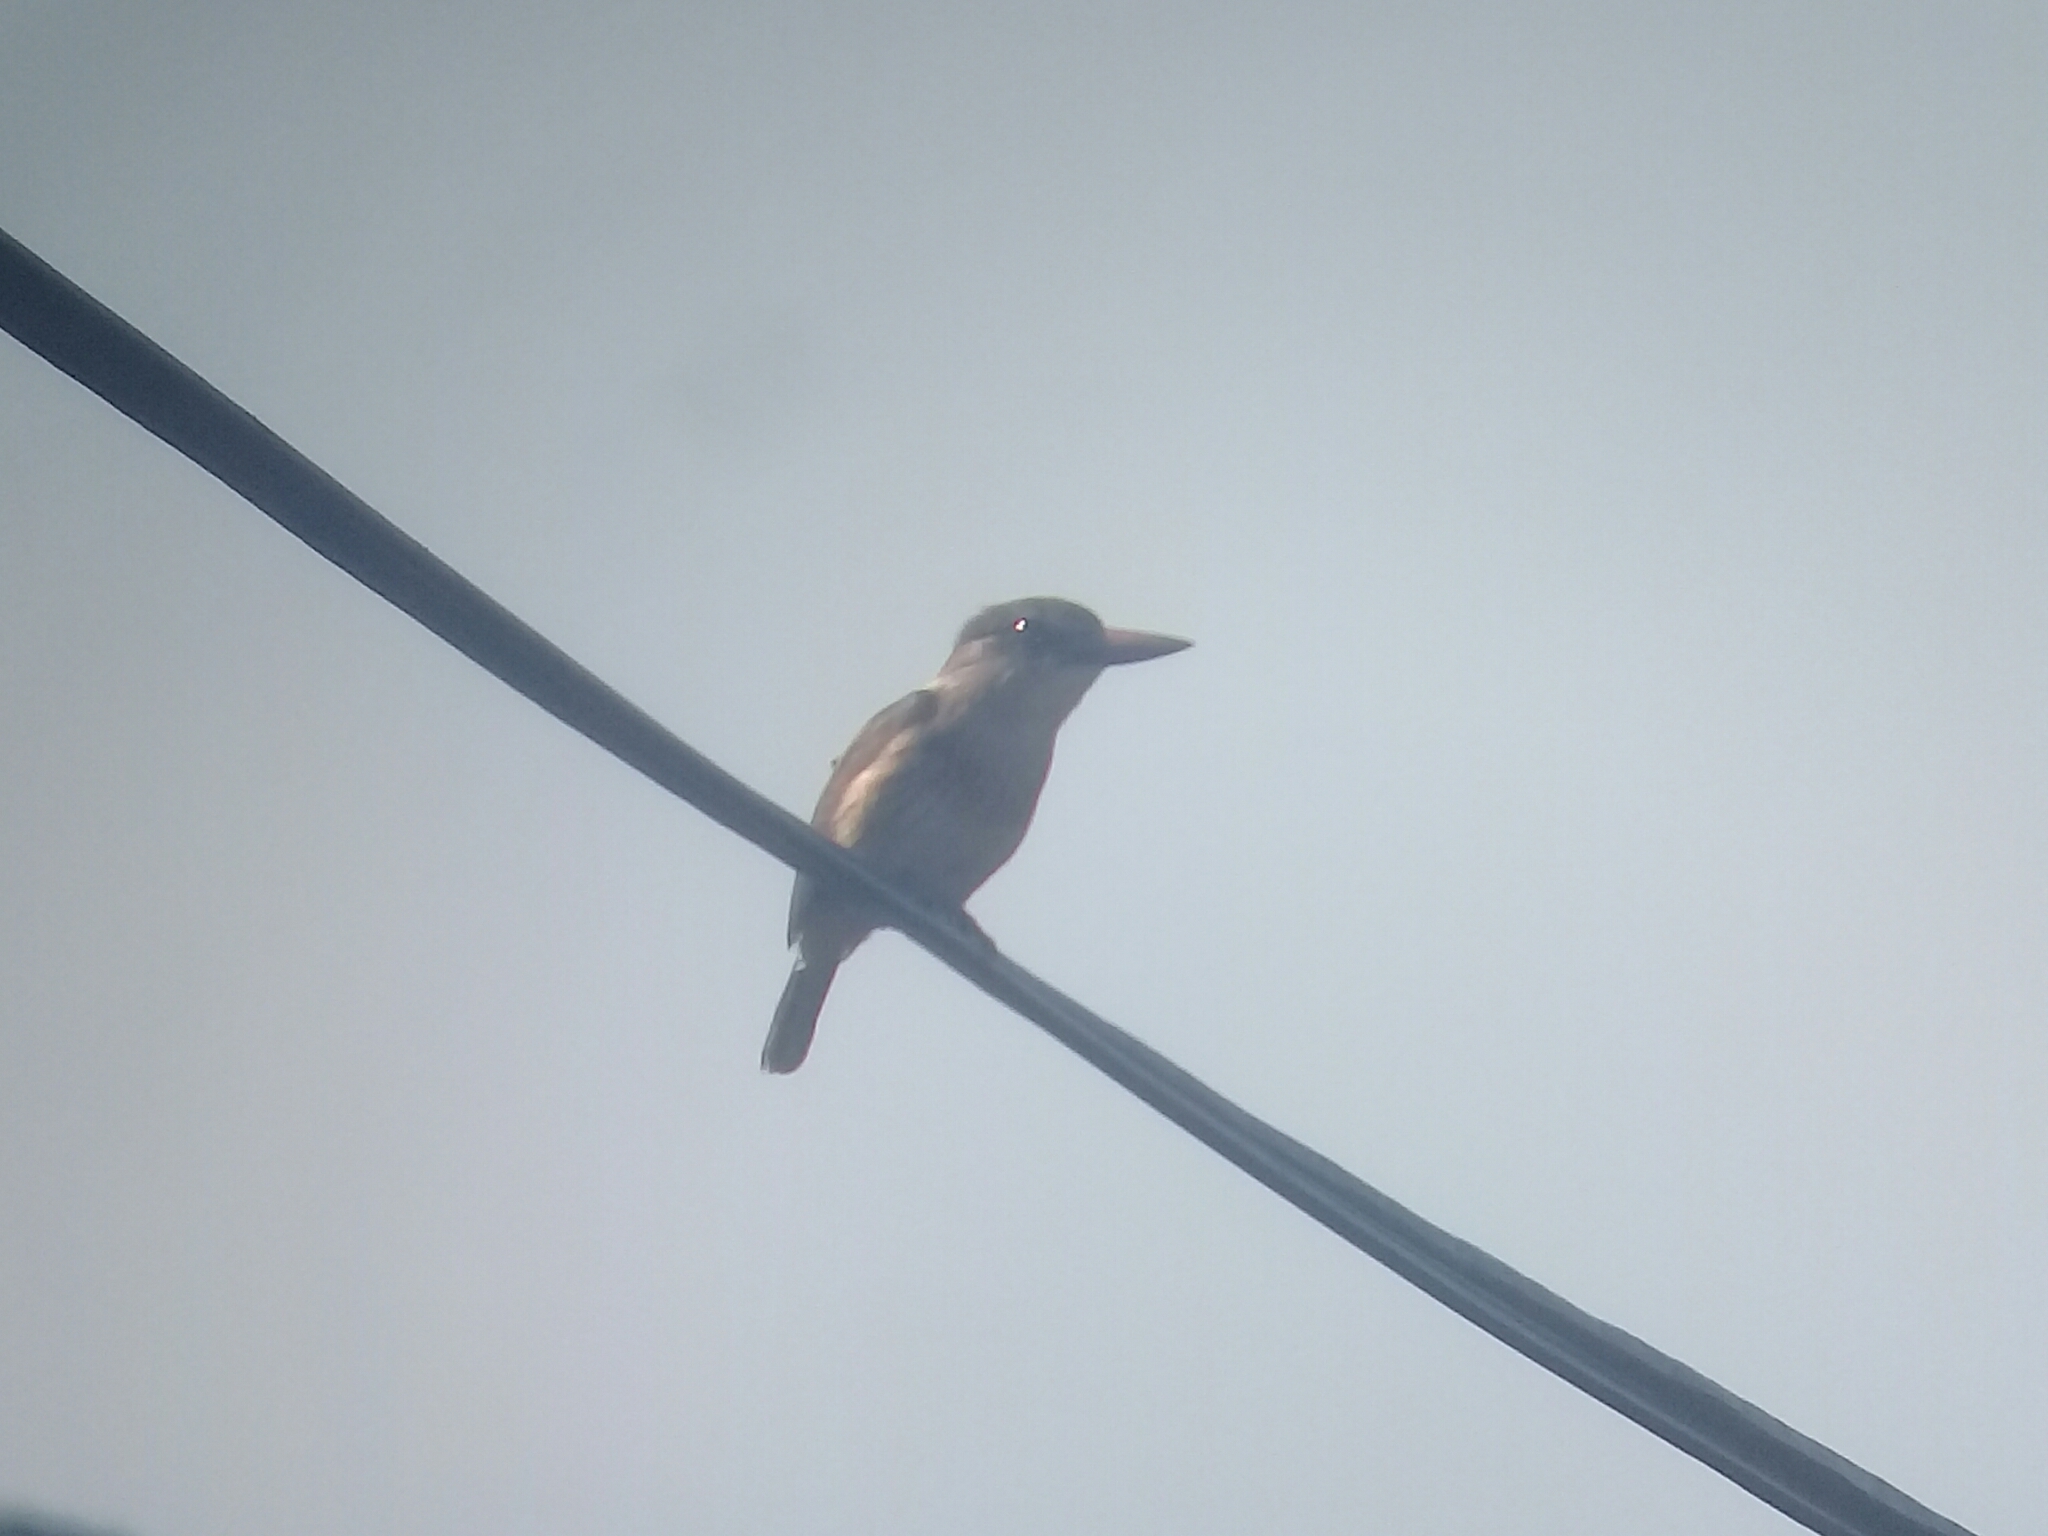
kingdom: Animalia
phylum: Chordata
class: Aves
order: Coraciiformes
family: Alcedinidae
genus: Halcyon
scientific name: Halcyon albiventris
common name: Brown-hooded kingfisher
